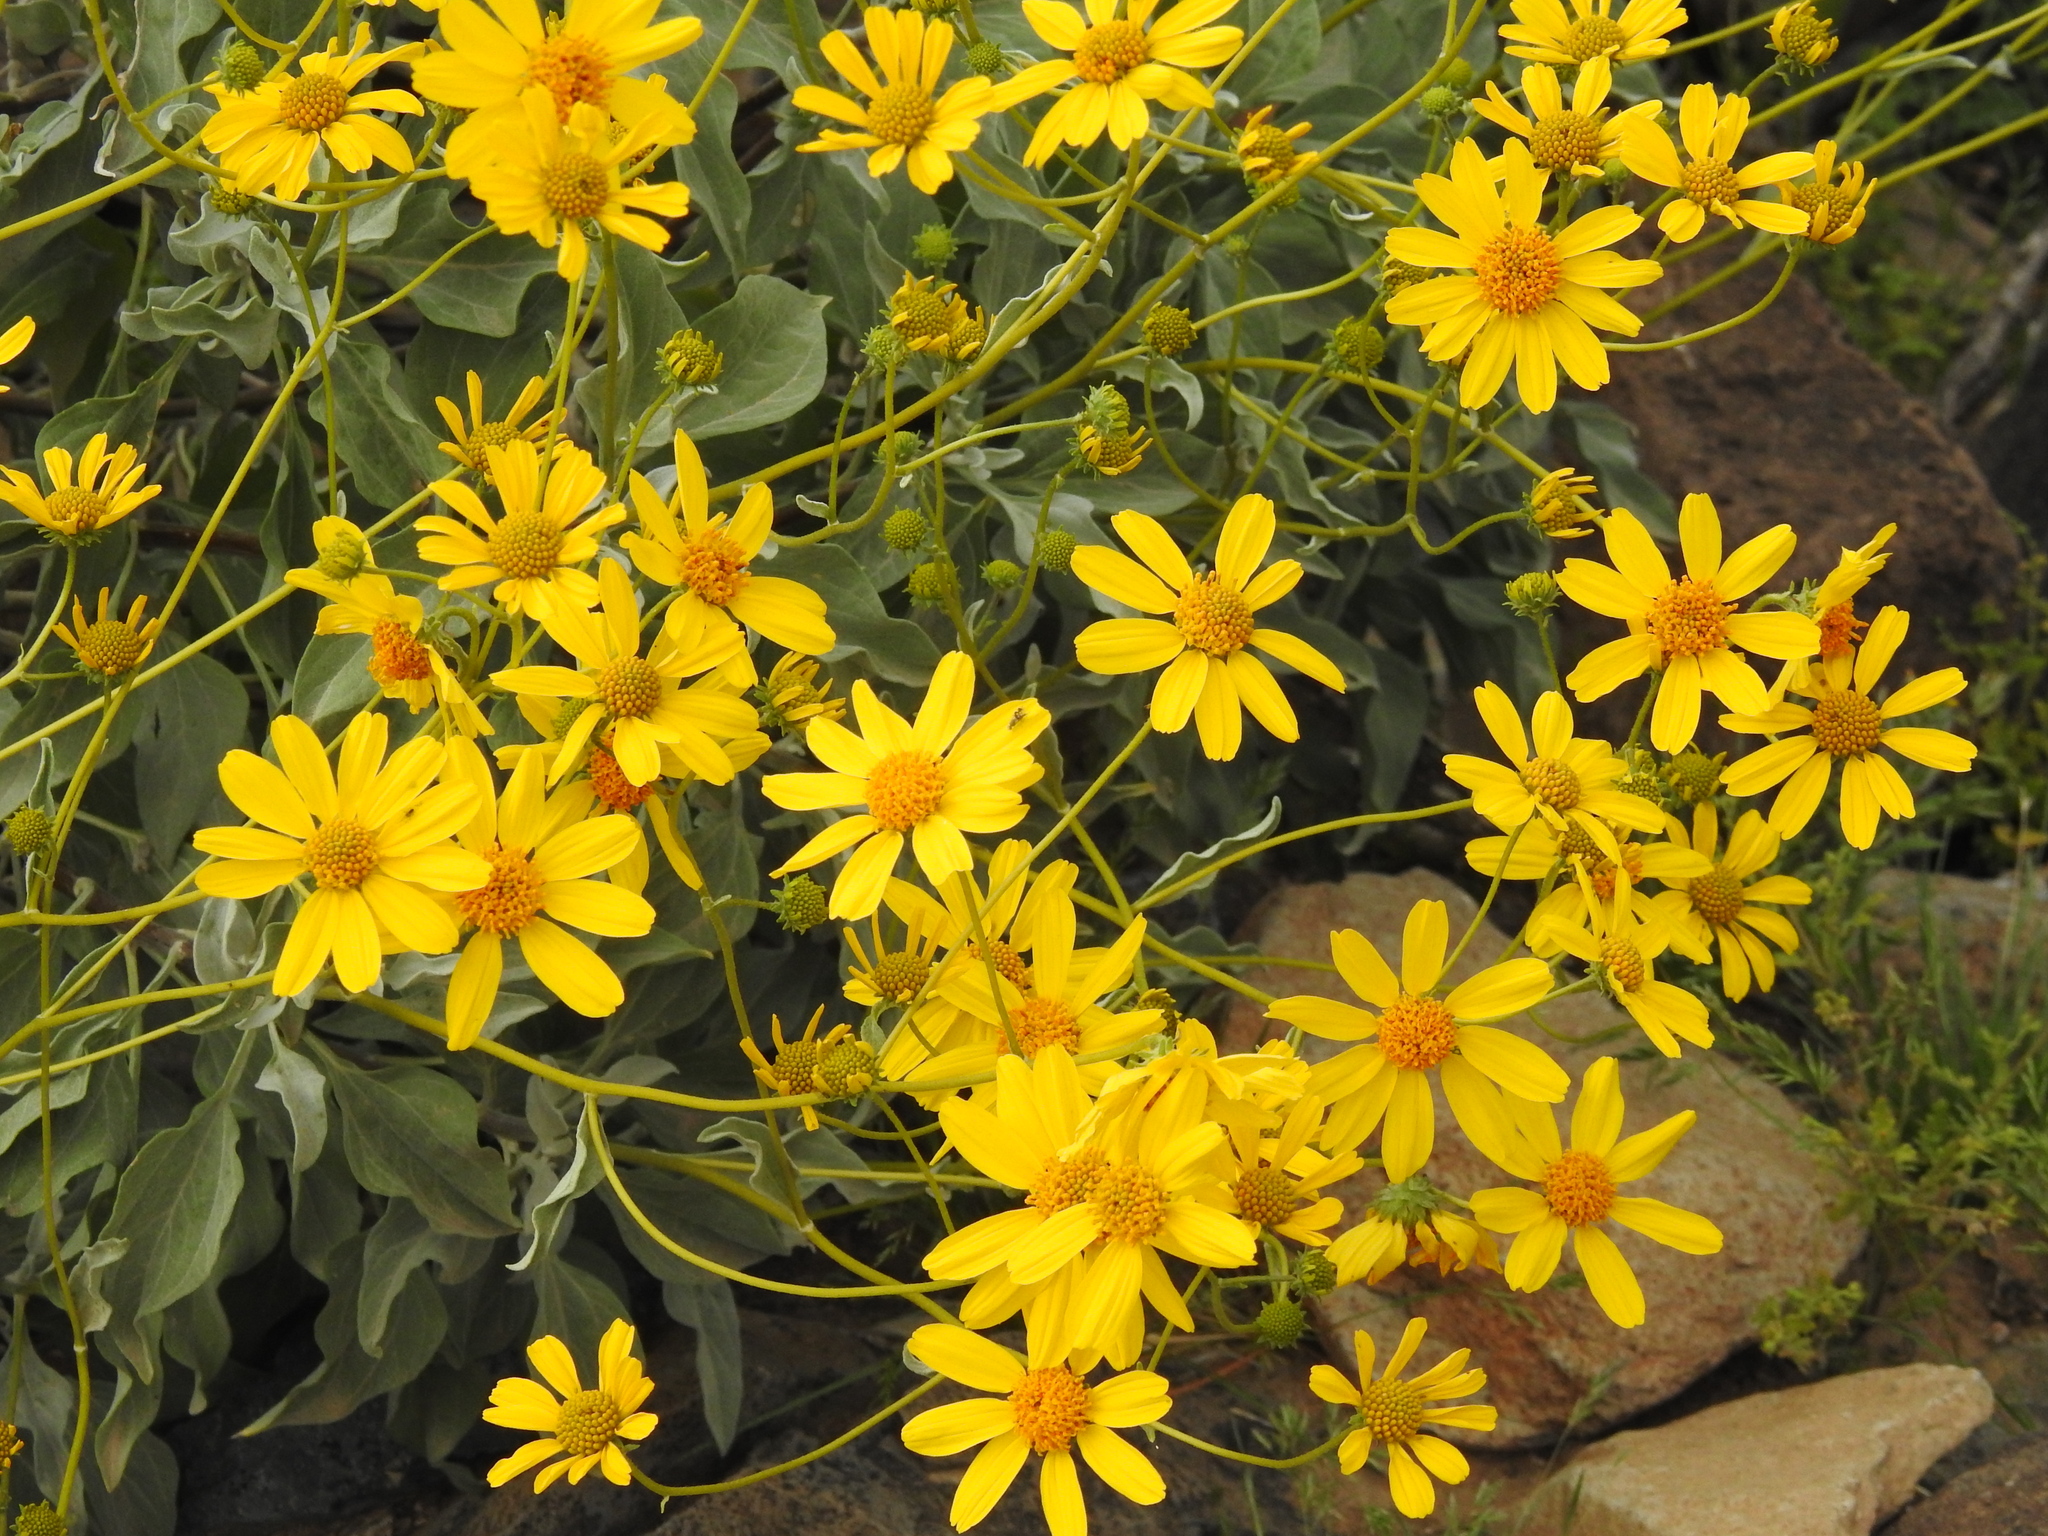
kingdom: Plantae
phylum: Tracheophyta
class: Magnoliopsida
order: Asterales
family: Asteraceae
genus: Encelia
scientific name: Encelia farinosa
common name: Brittlebush
